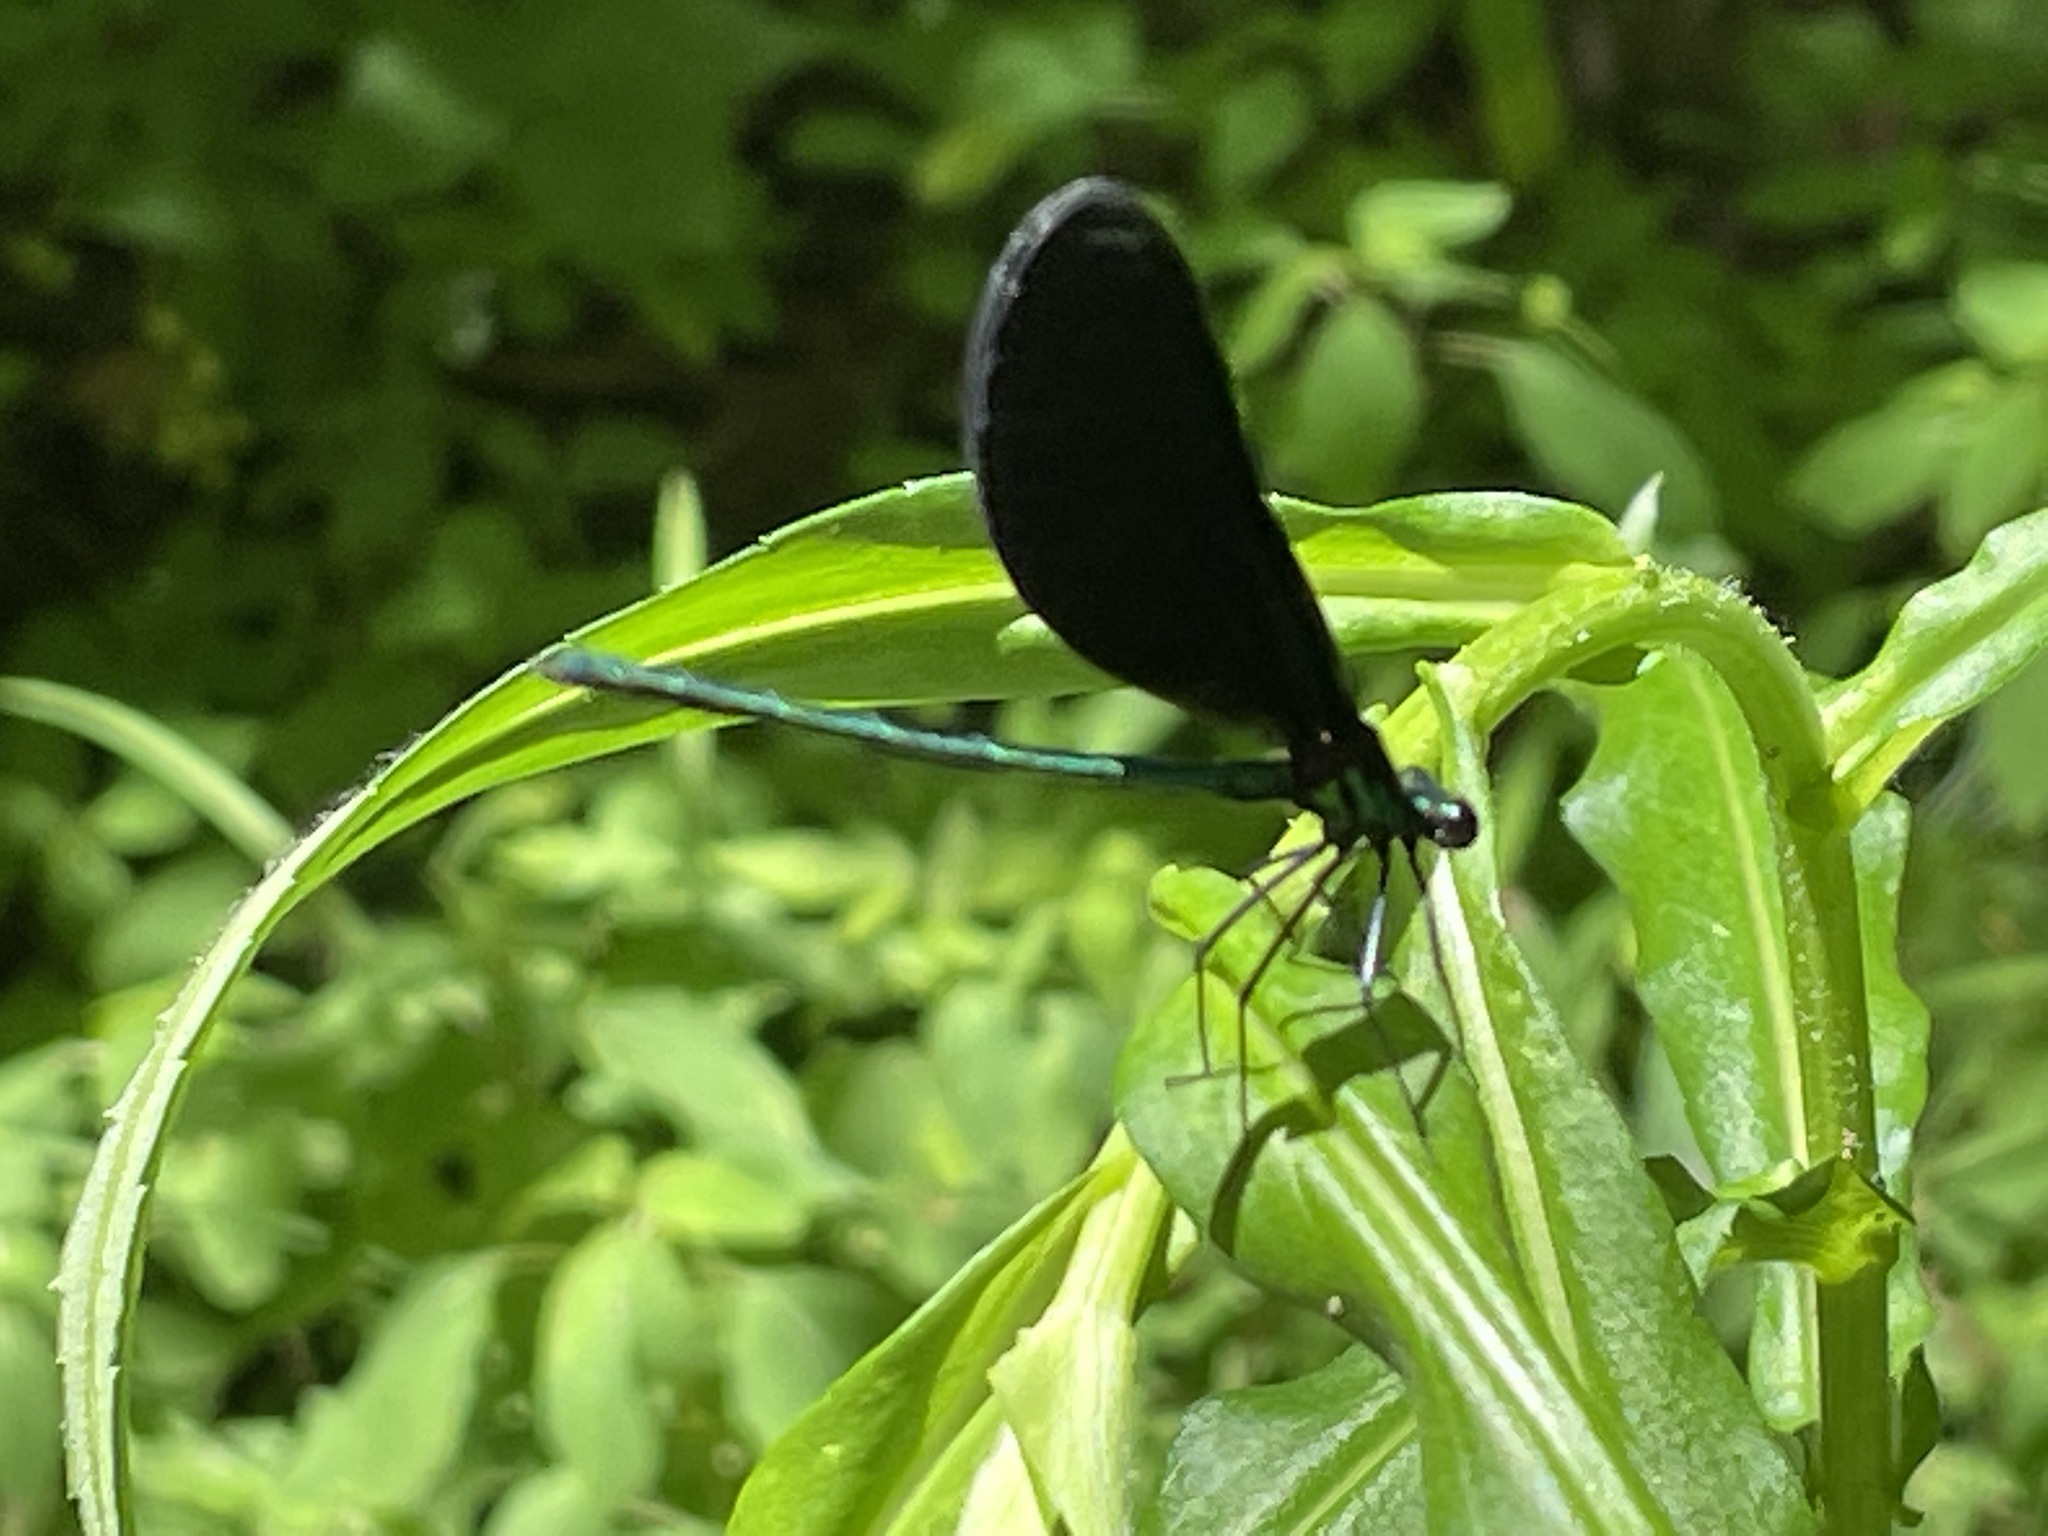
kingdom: Animalia
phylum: Arthropoda
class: Insecta
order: Odonata
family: Calopterygidae
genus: Calopteryx
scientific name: Calopteryx maculata
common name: Ebony jewelwing
